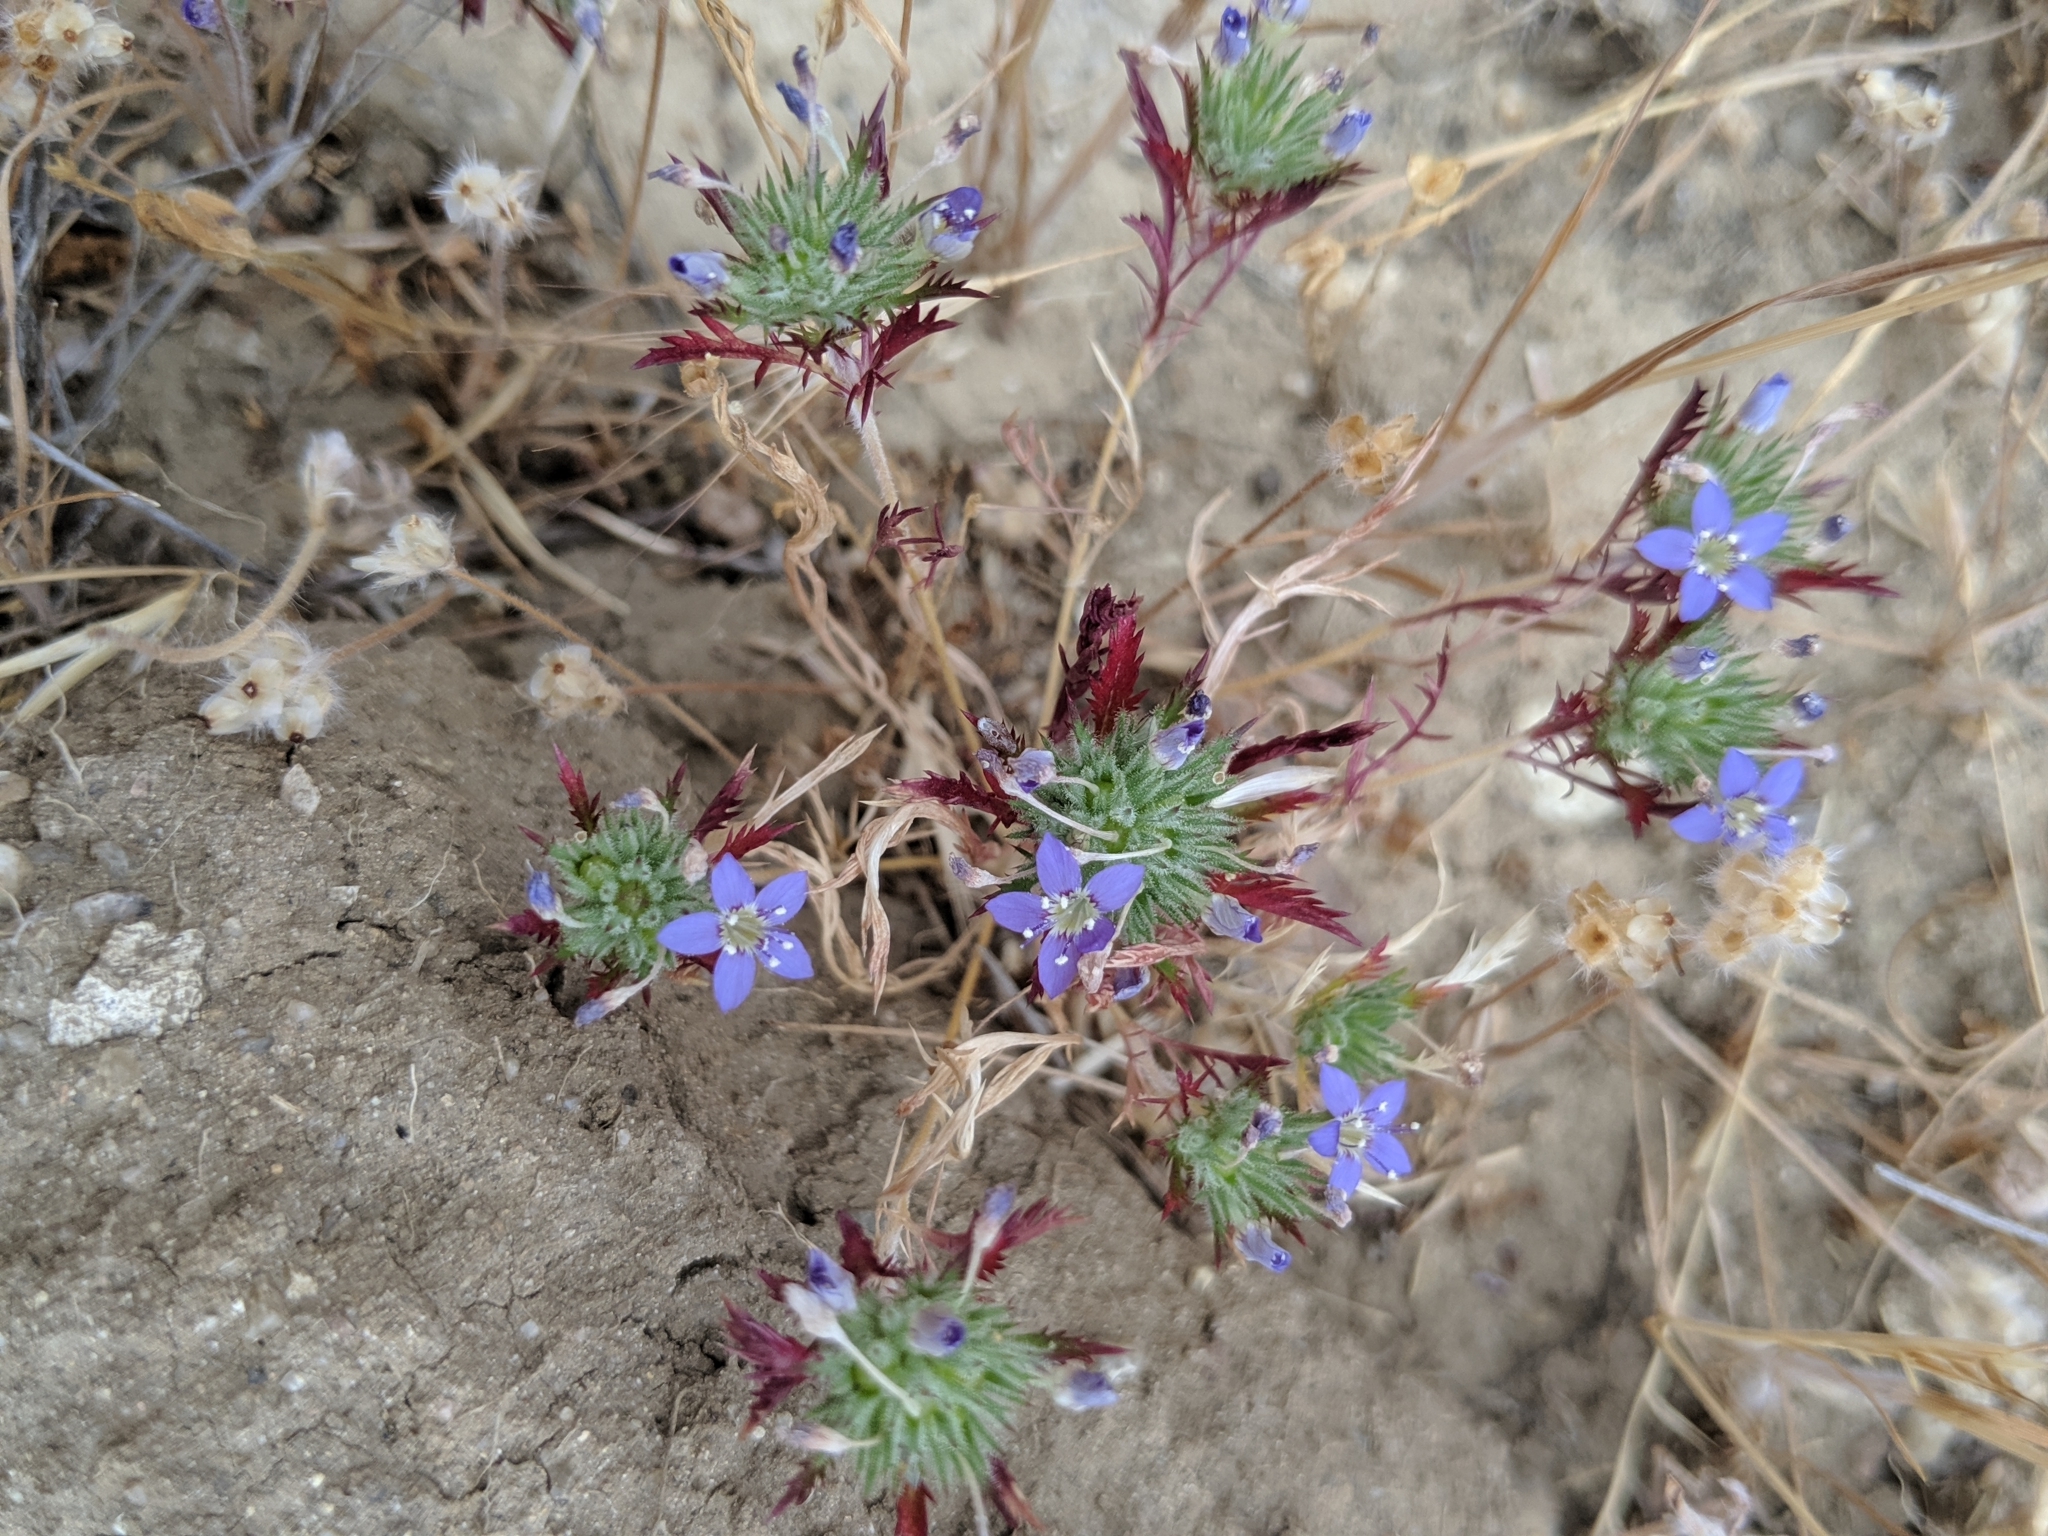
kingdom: Plantae
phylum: Tracheophyta
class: Magnoliopsida
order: Ericales
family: Polemoniaceae
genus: Navarretia
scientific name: Navarretia pubescens
